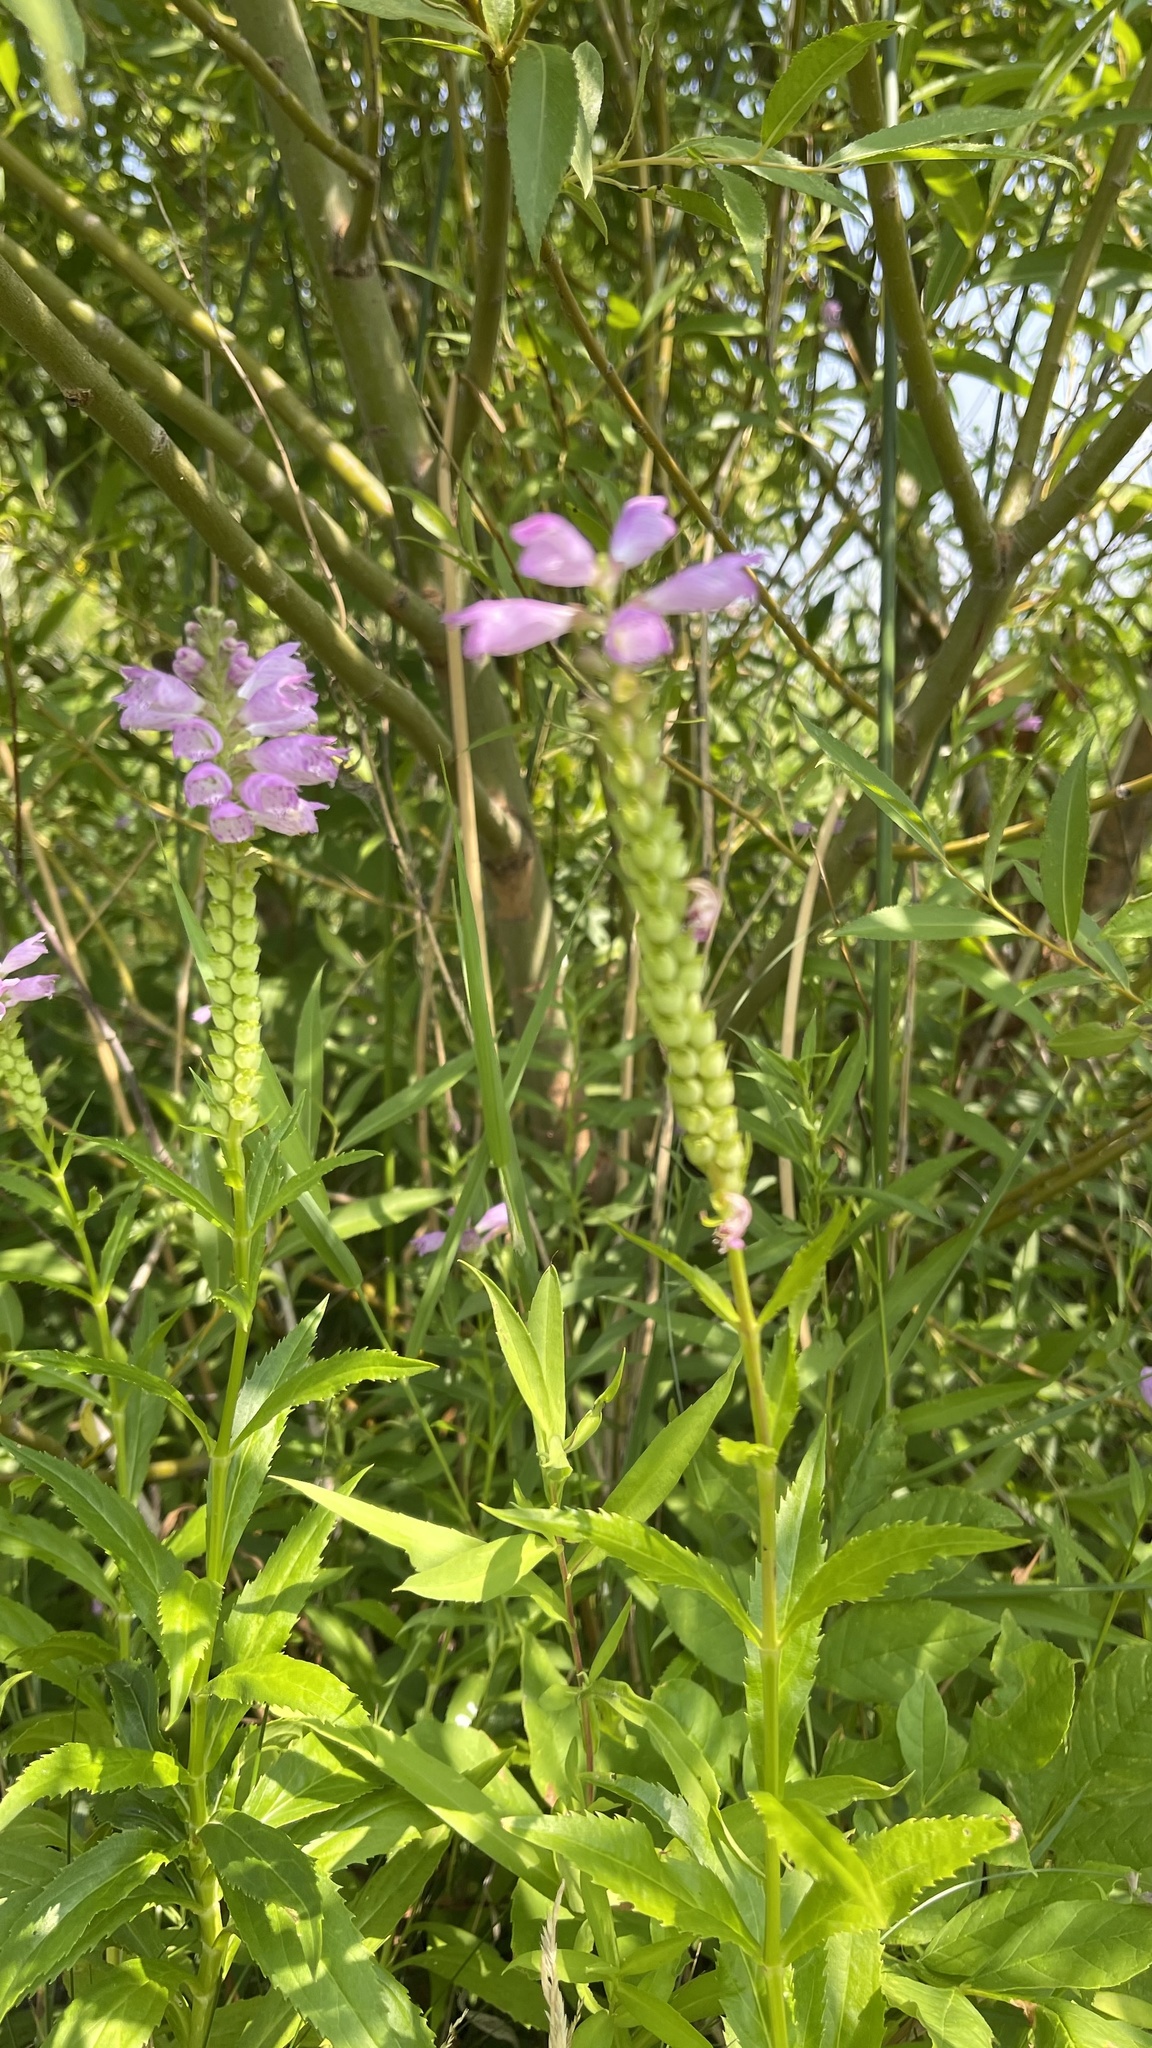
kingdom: Plantae
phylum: Tracheophyta
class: Magnoliopsida
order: Lamiales
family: Lamiaceae
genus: Physostegia
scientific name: Physostegia virginiana
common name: Obedient-plant
